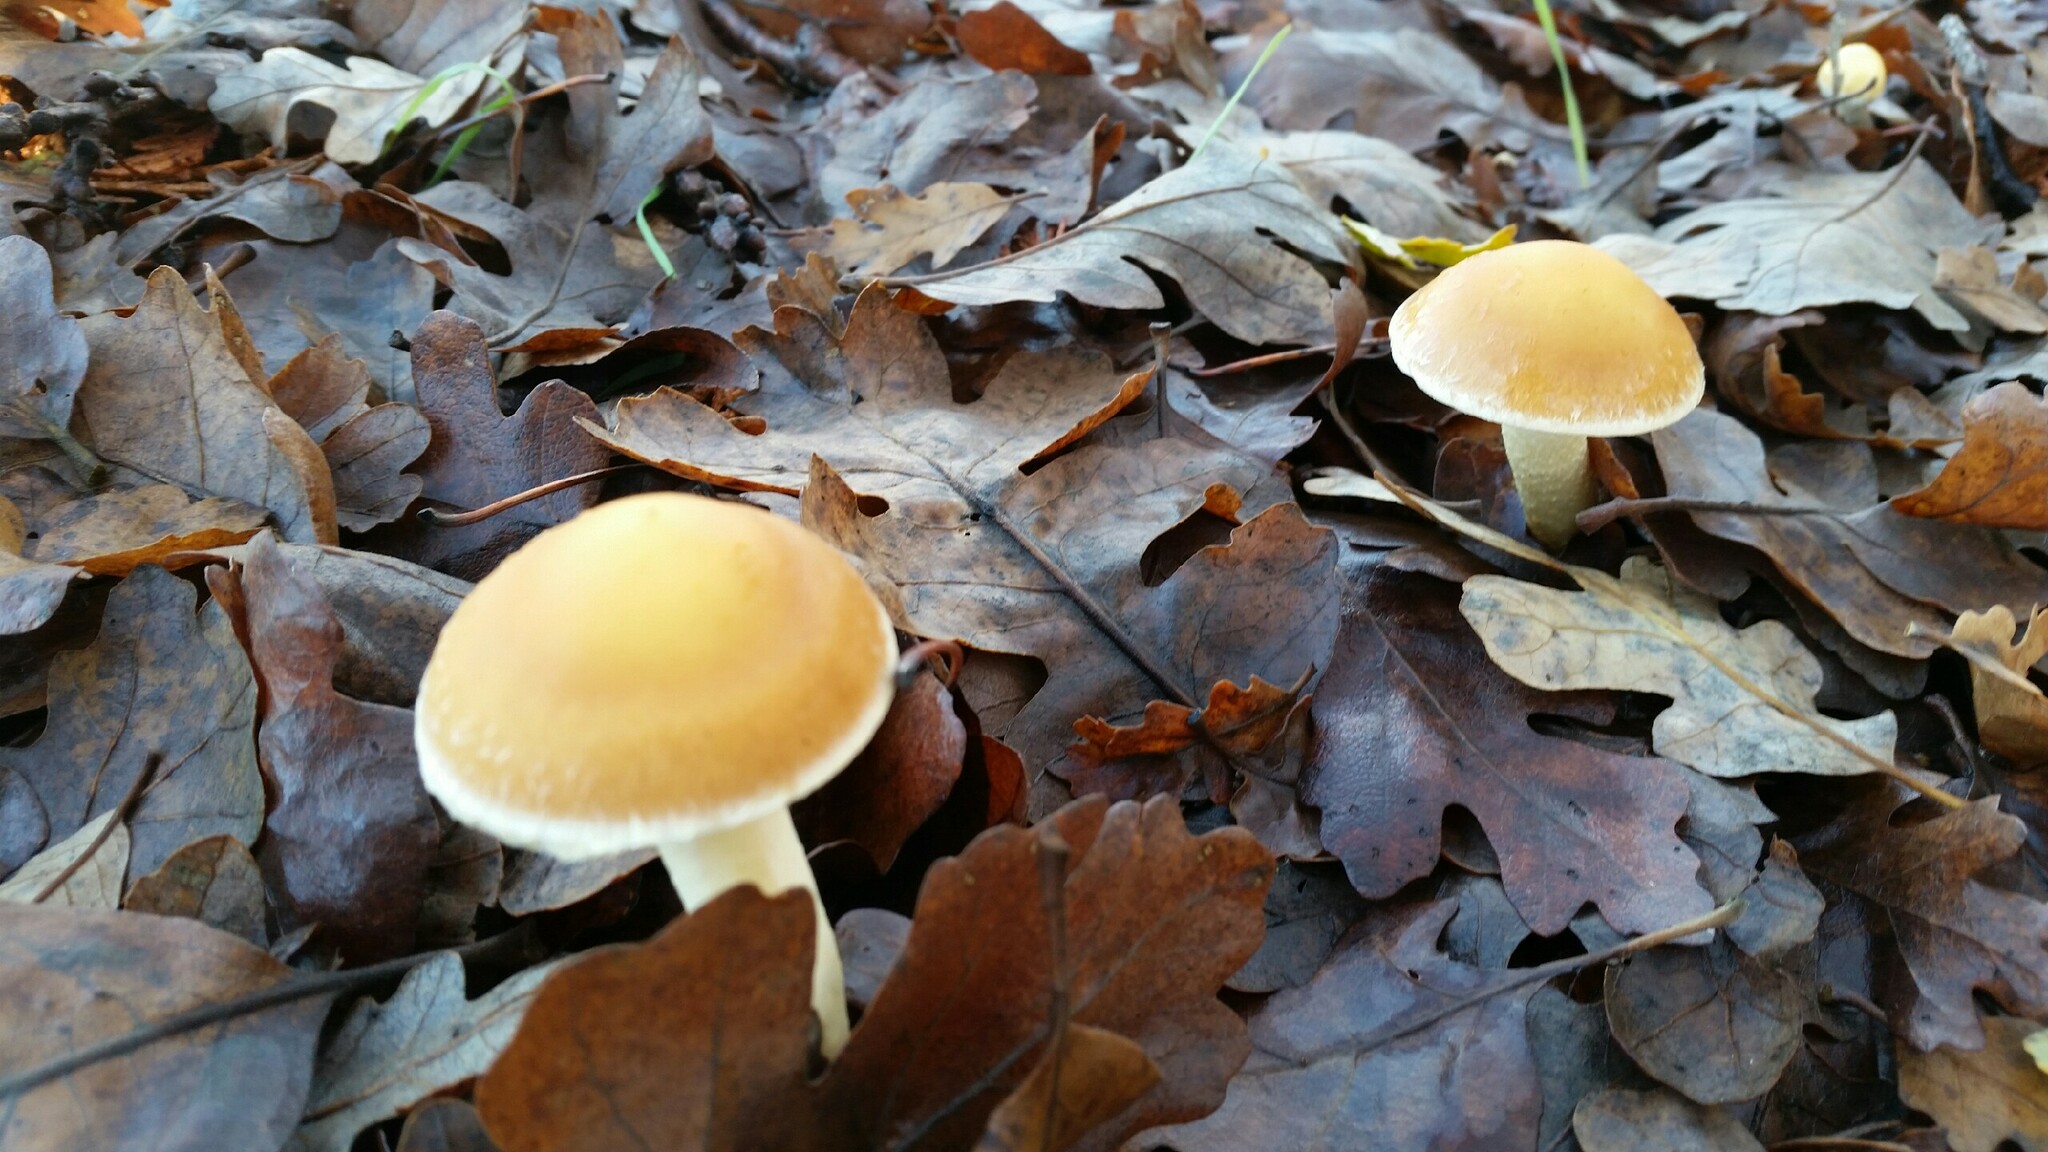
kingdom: Fungi
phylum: Basidiomycota
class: Agaricomycetes
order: Agaricales
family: Strophariaceae
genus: Leratiomyces
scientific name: Leratiomyces percevalii
